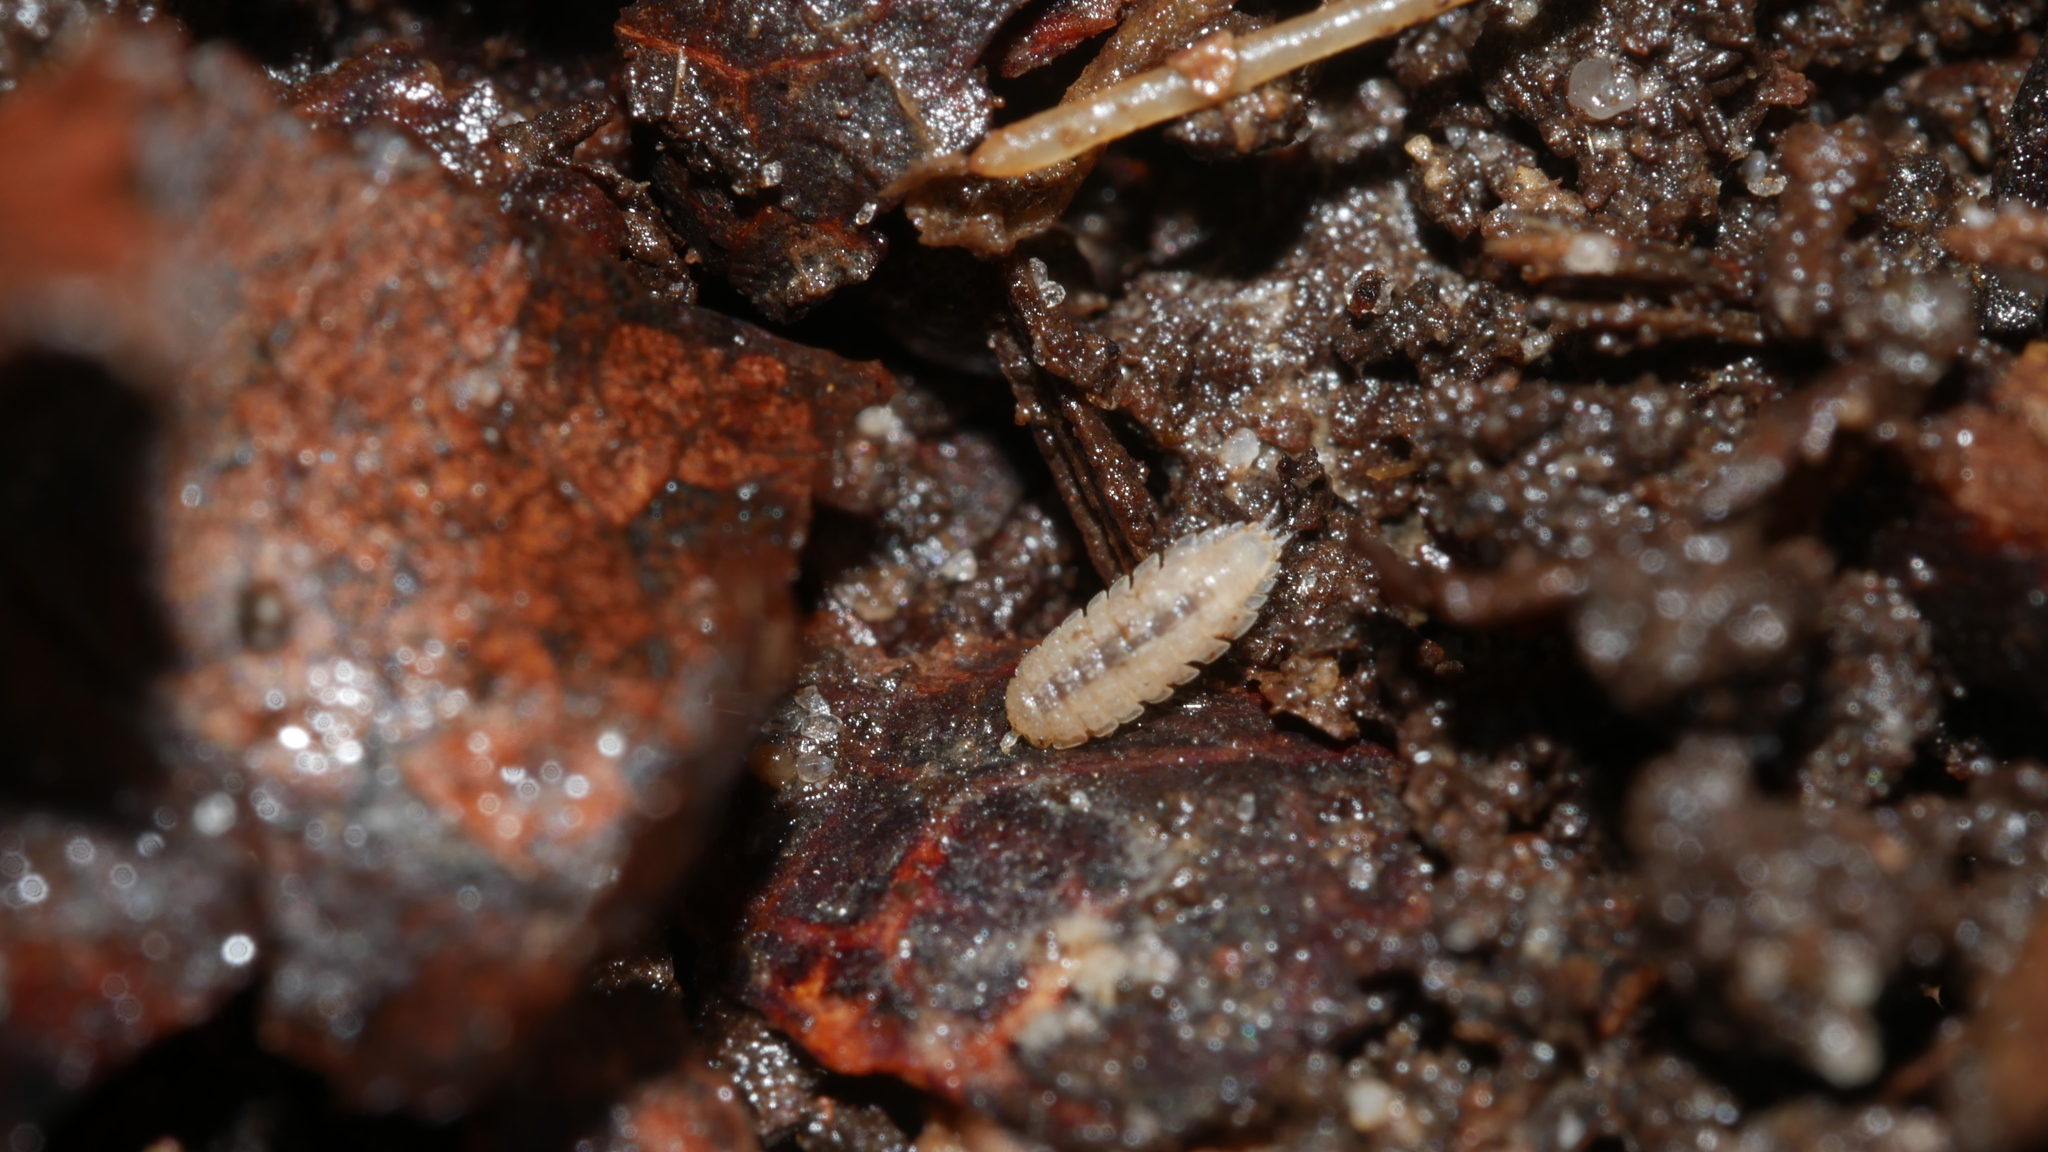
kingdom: Animalia
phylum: Arthropoda
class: Malacostraca
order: Isopoda
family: Trichoniscidae
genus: Haplophthalmus
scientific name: Haplophthalmus danicus
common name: Pillbug
